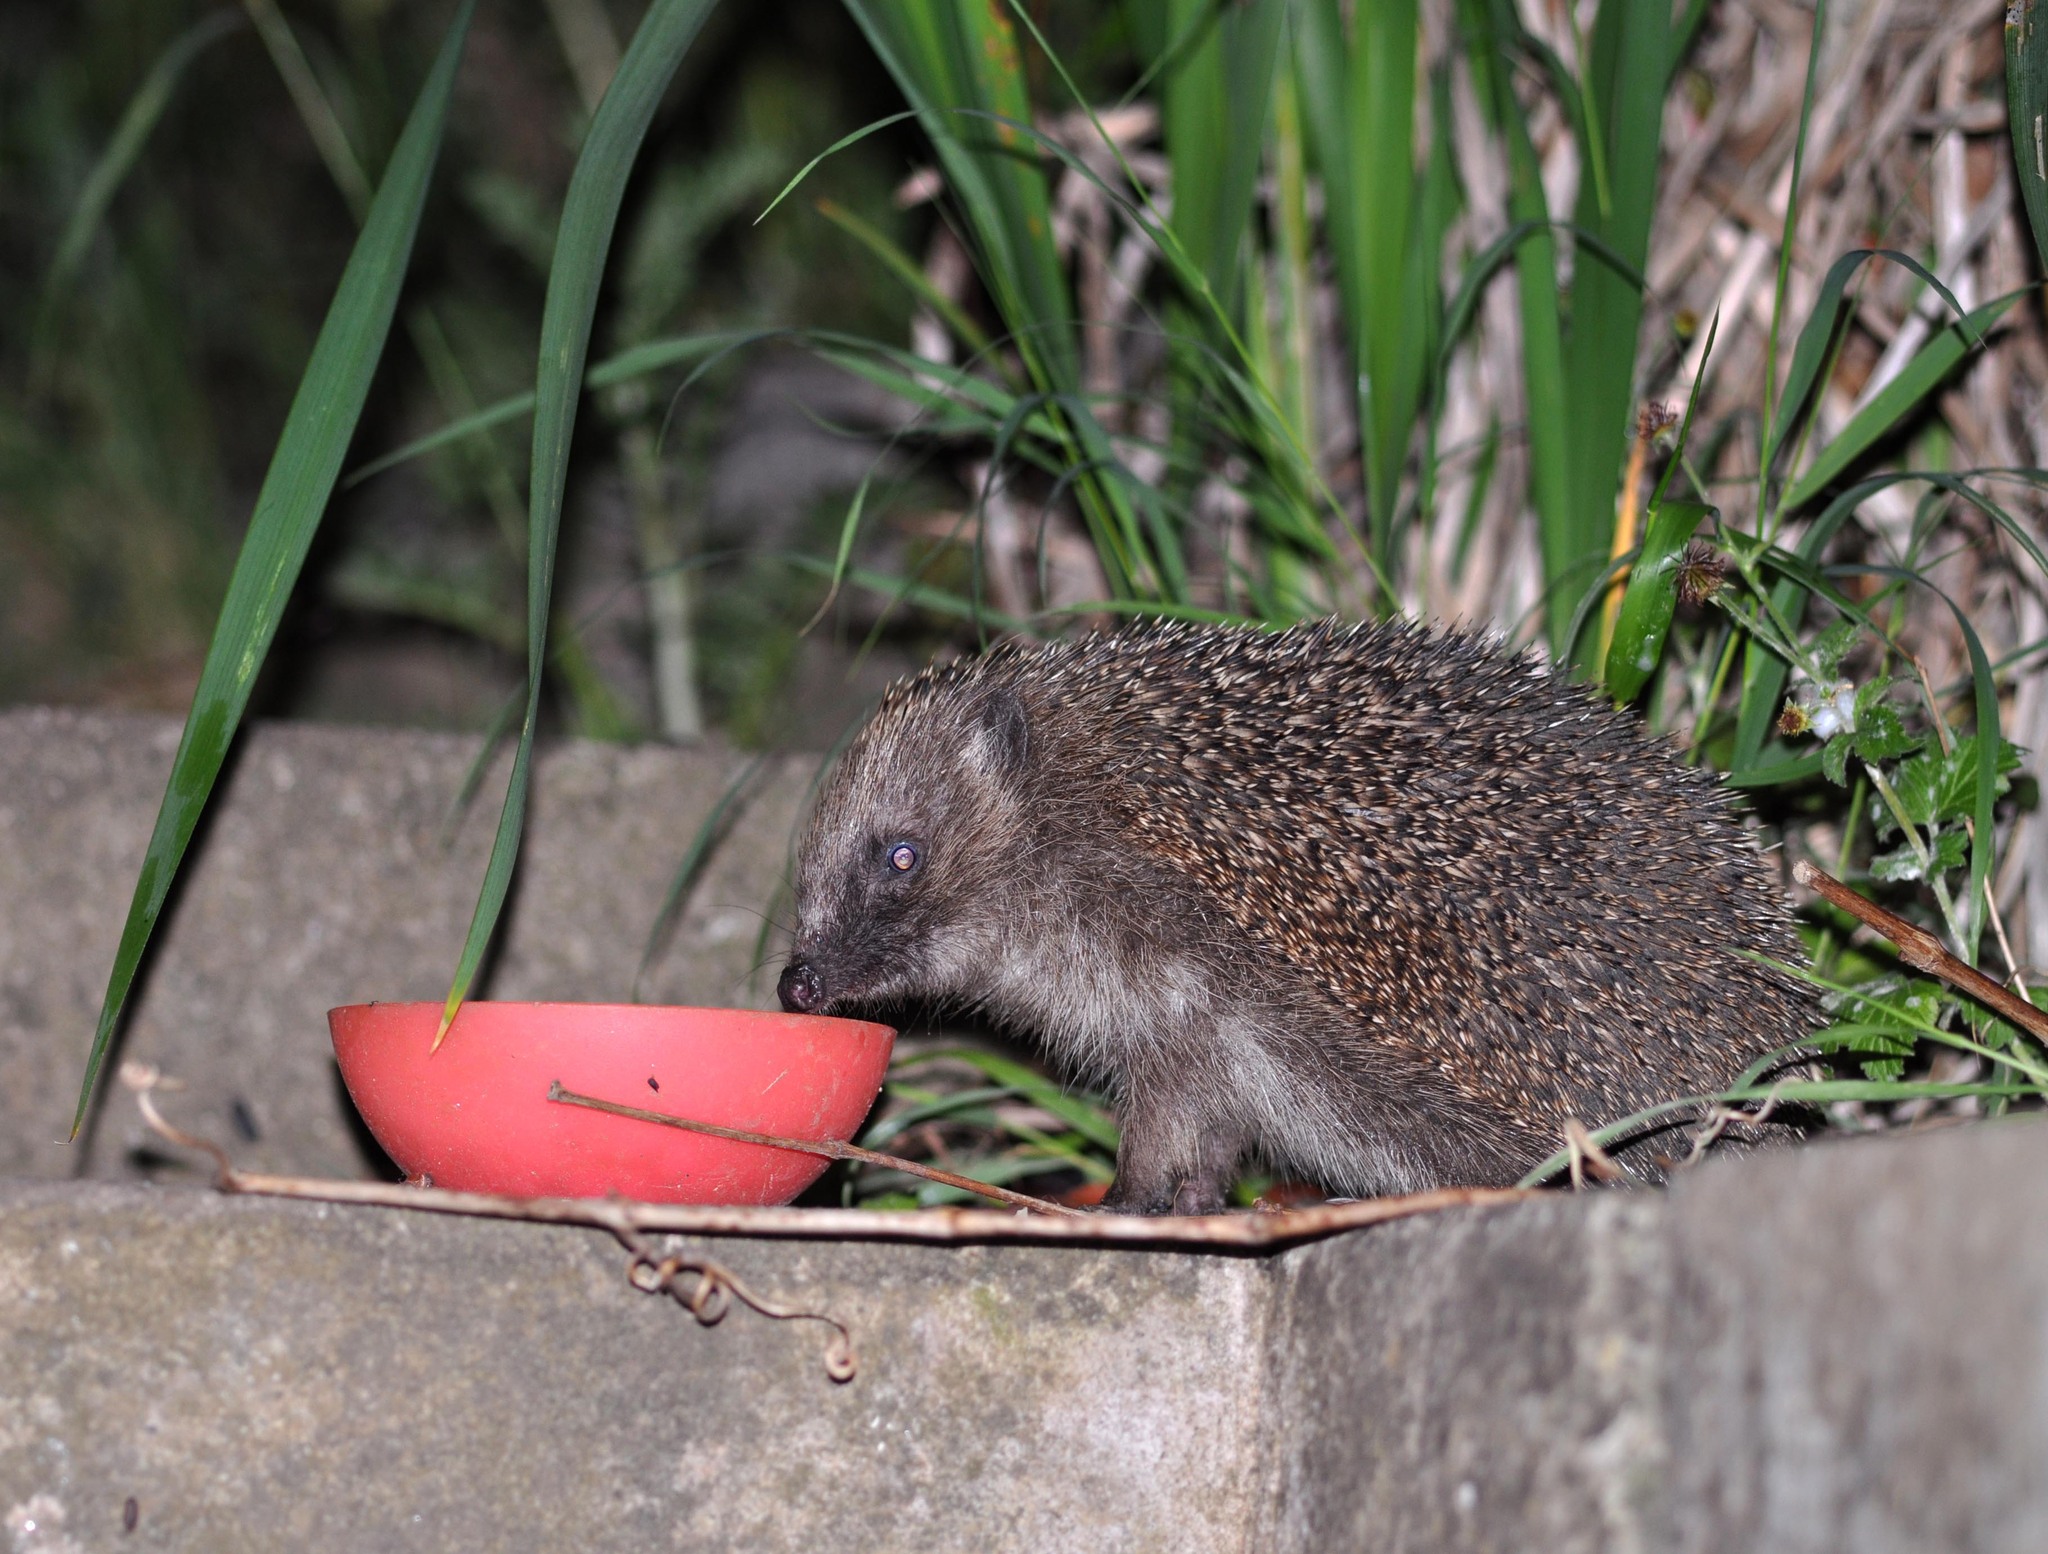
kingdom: Animalia
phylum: Chordata
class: Mammalia
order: Erinaceomorpha
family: Erinaceidae
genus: Erinaceus
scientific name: Erinaceus europaeus
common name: West european hedgehog
